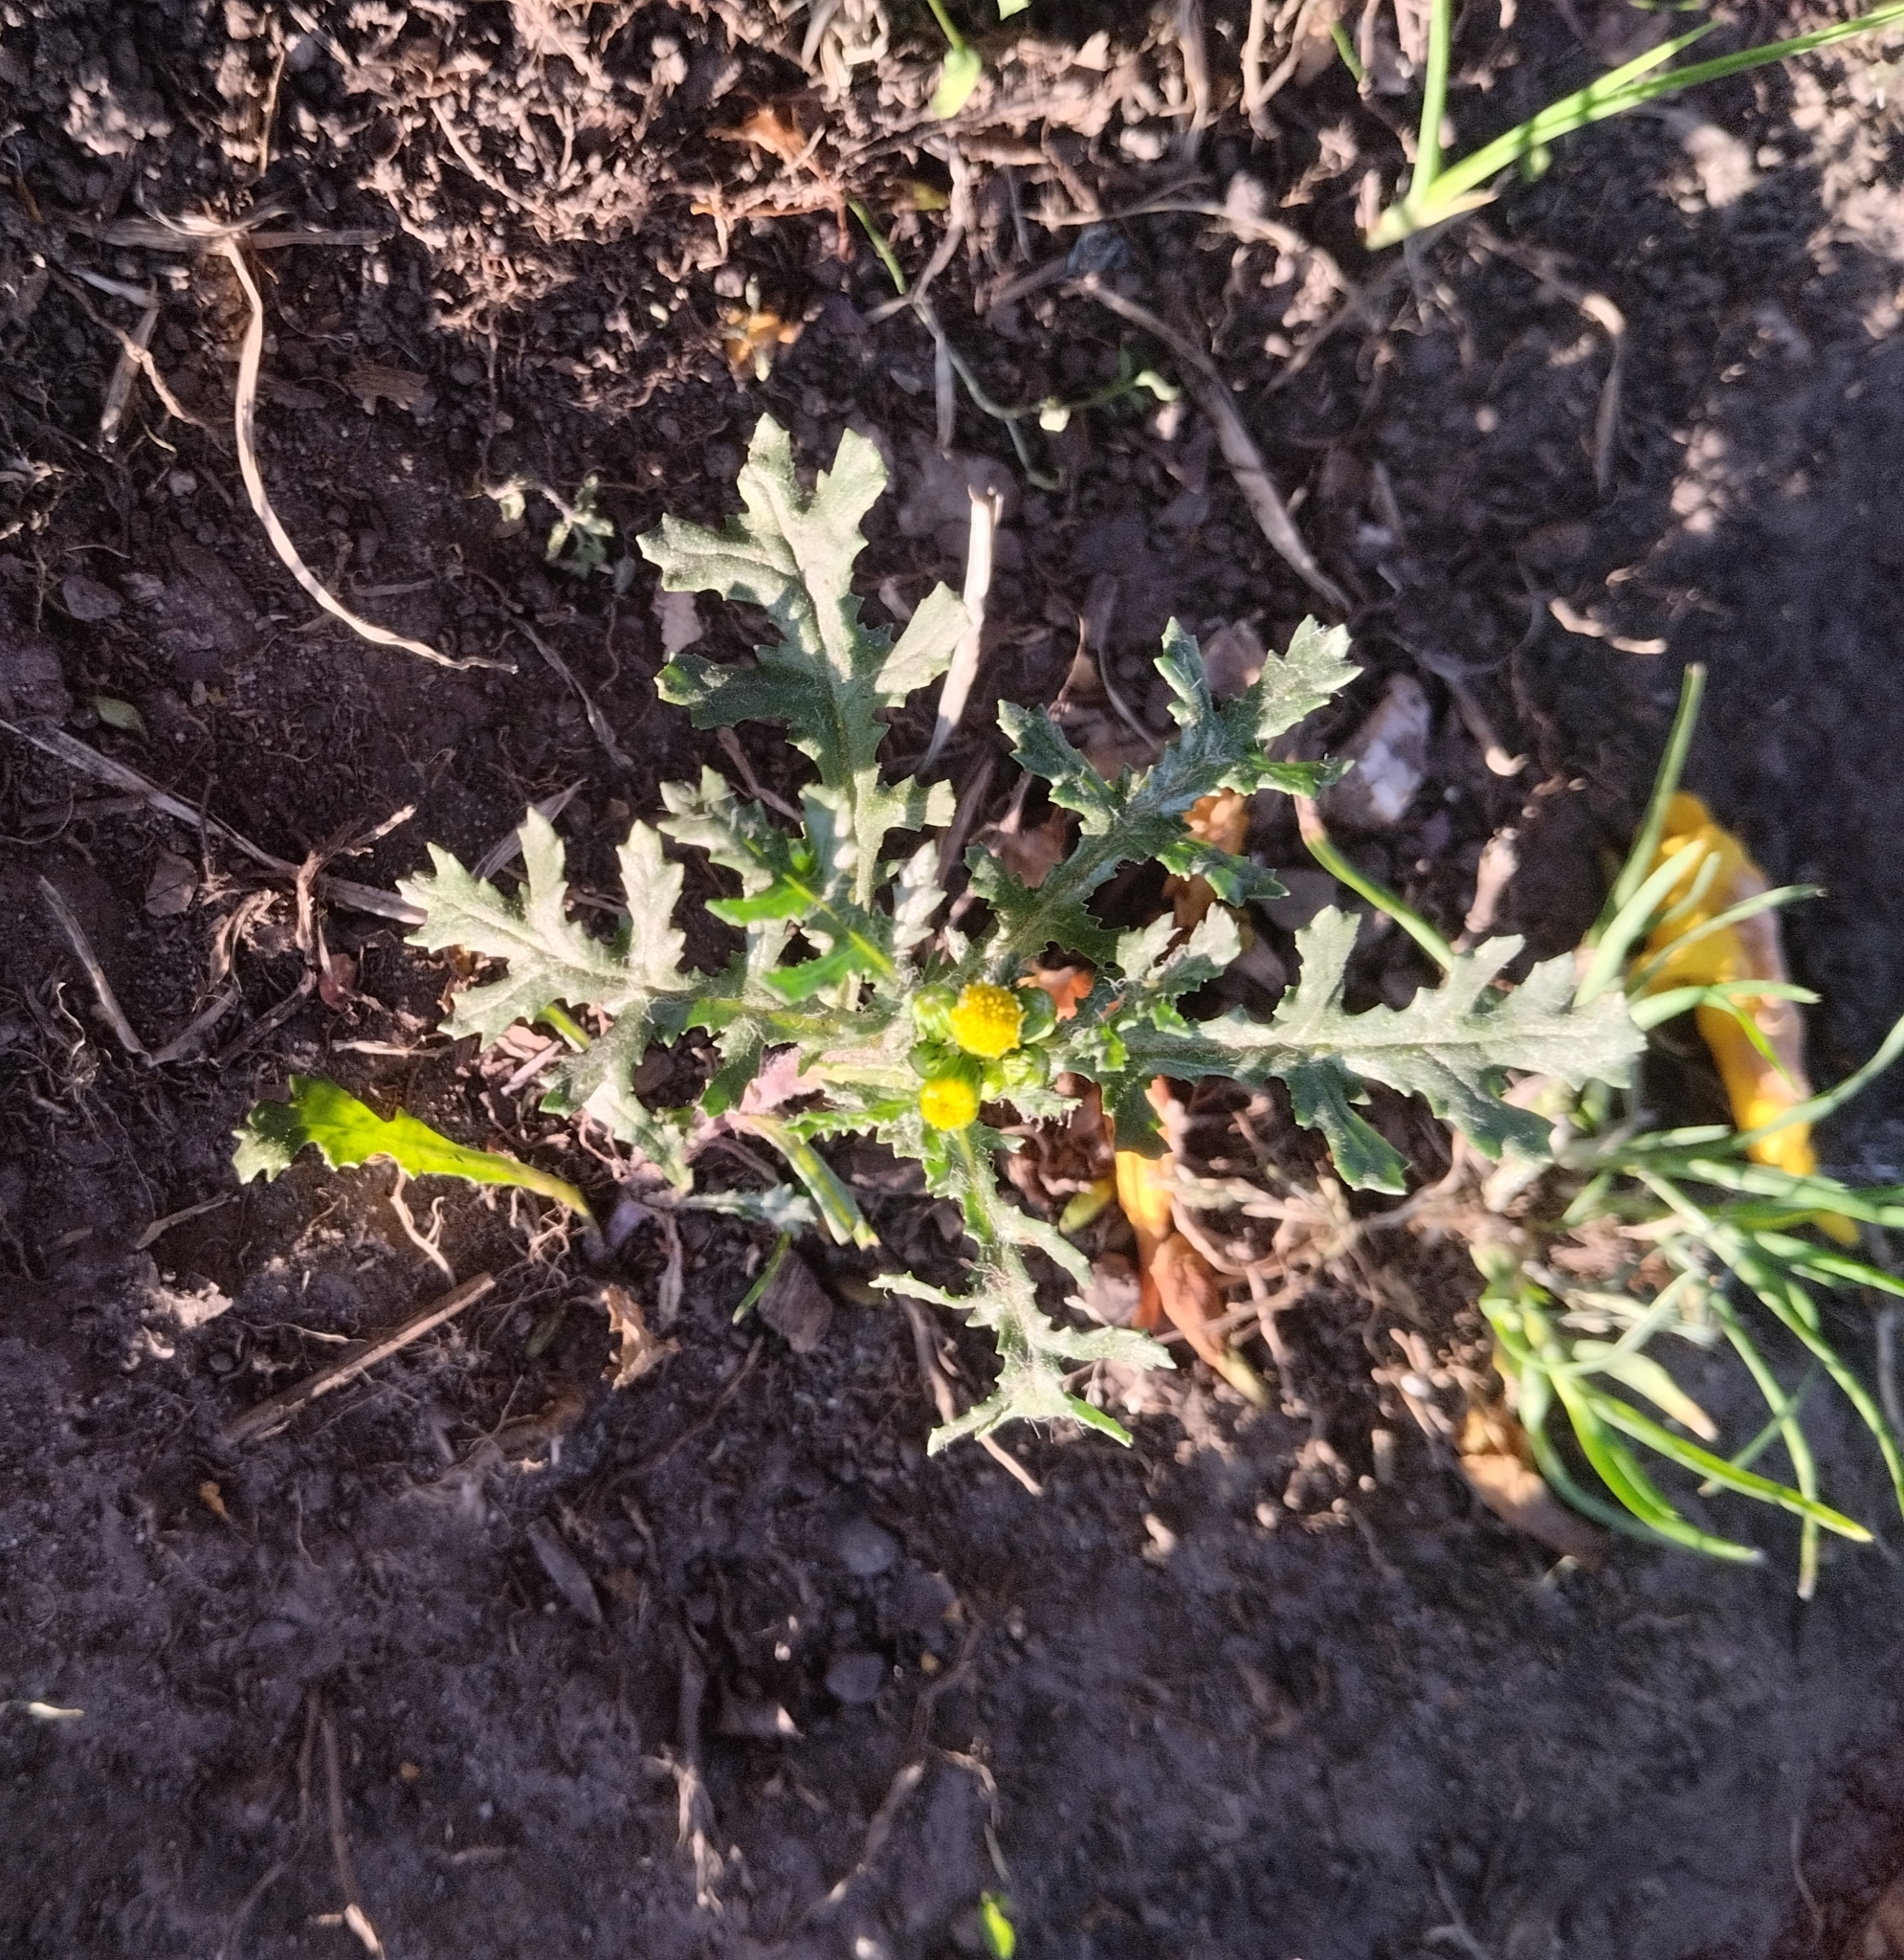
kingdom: Plantae
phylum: Tracheophyta
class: Magnoliopsida
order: Asterales
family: Asteraceae
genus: Senecio
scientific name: Senecio vulgaris
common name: Old-man-in-the-spring
